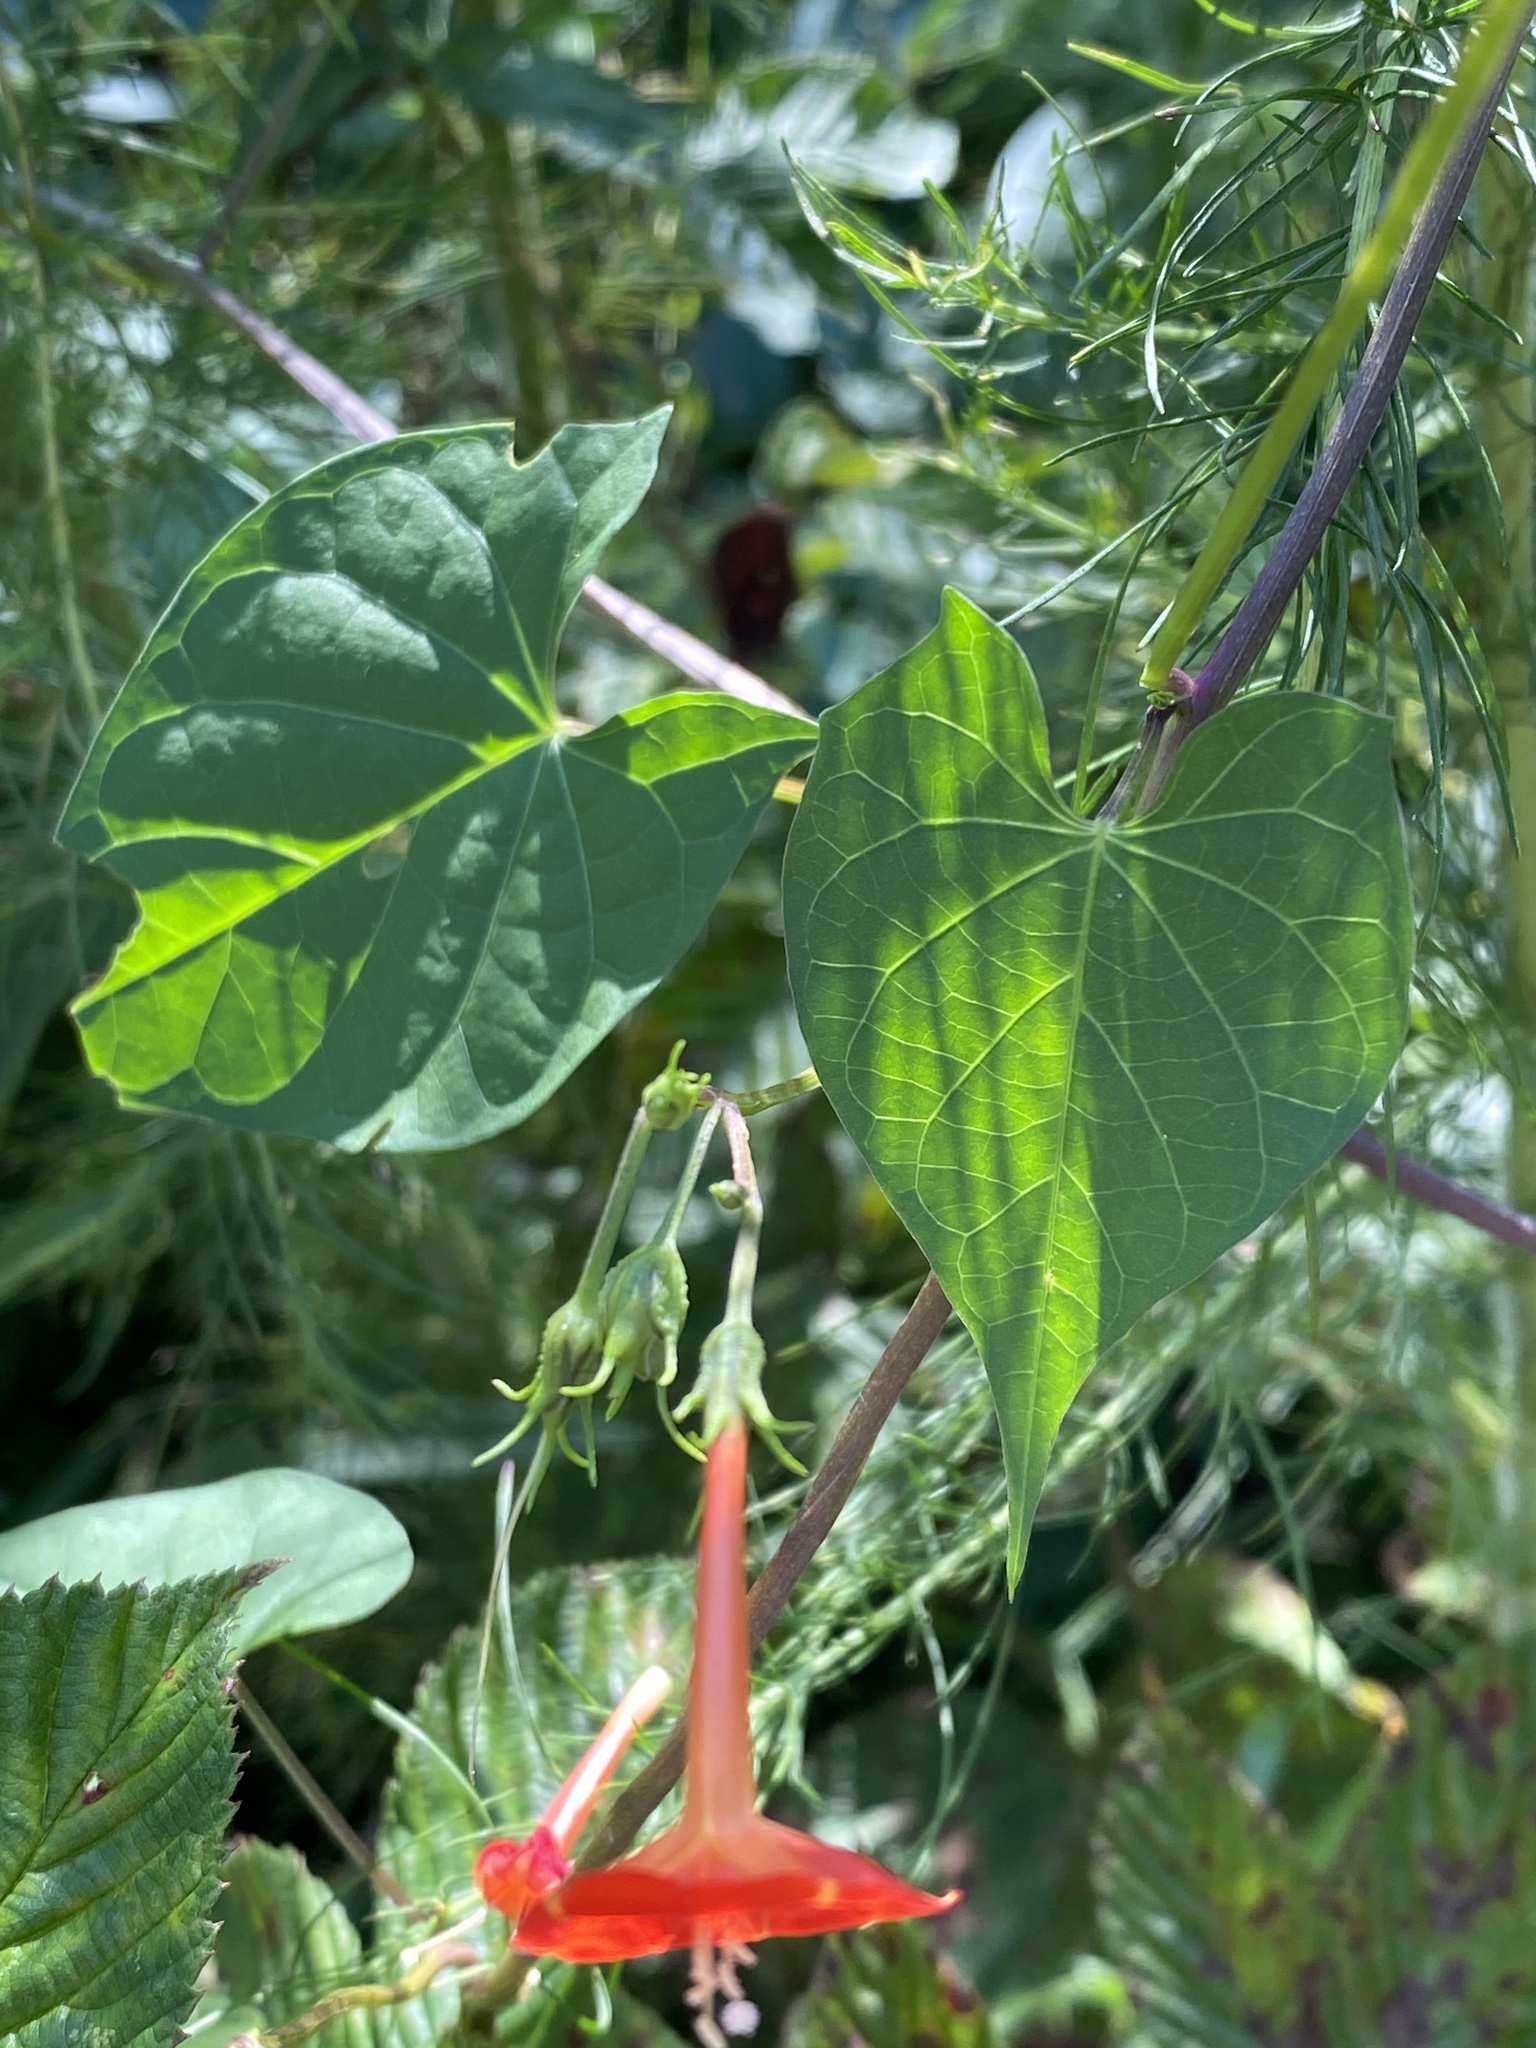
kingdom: Plantae
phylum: Tracheophyta
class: Magnoliopsida
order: Solanales
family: Convolvulaceae
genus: Ipomoea
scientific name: Ipomoea coccinea
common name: Red morning-glory
